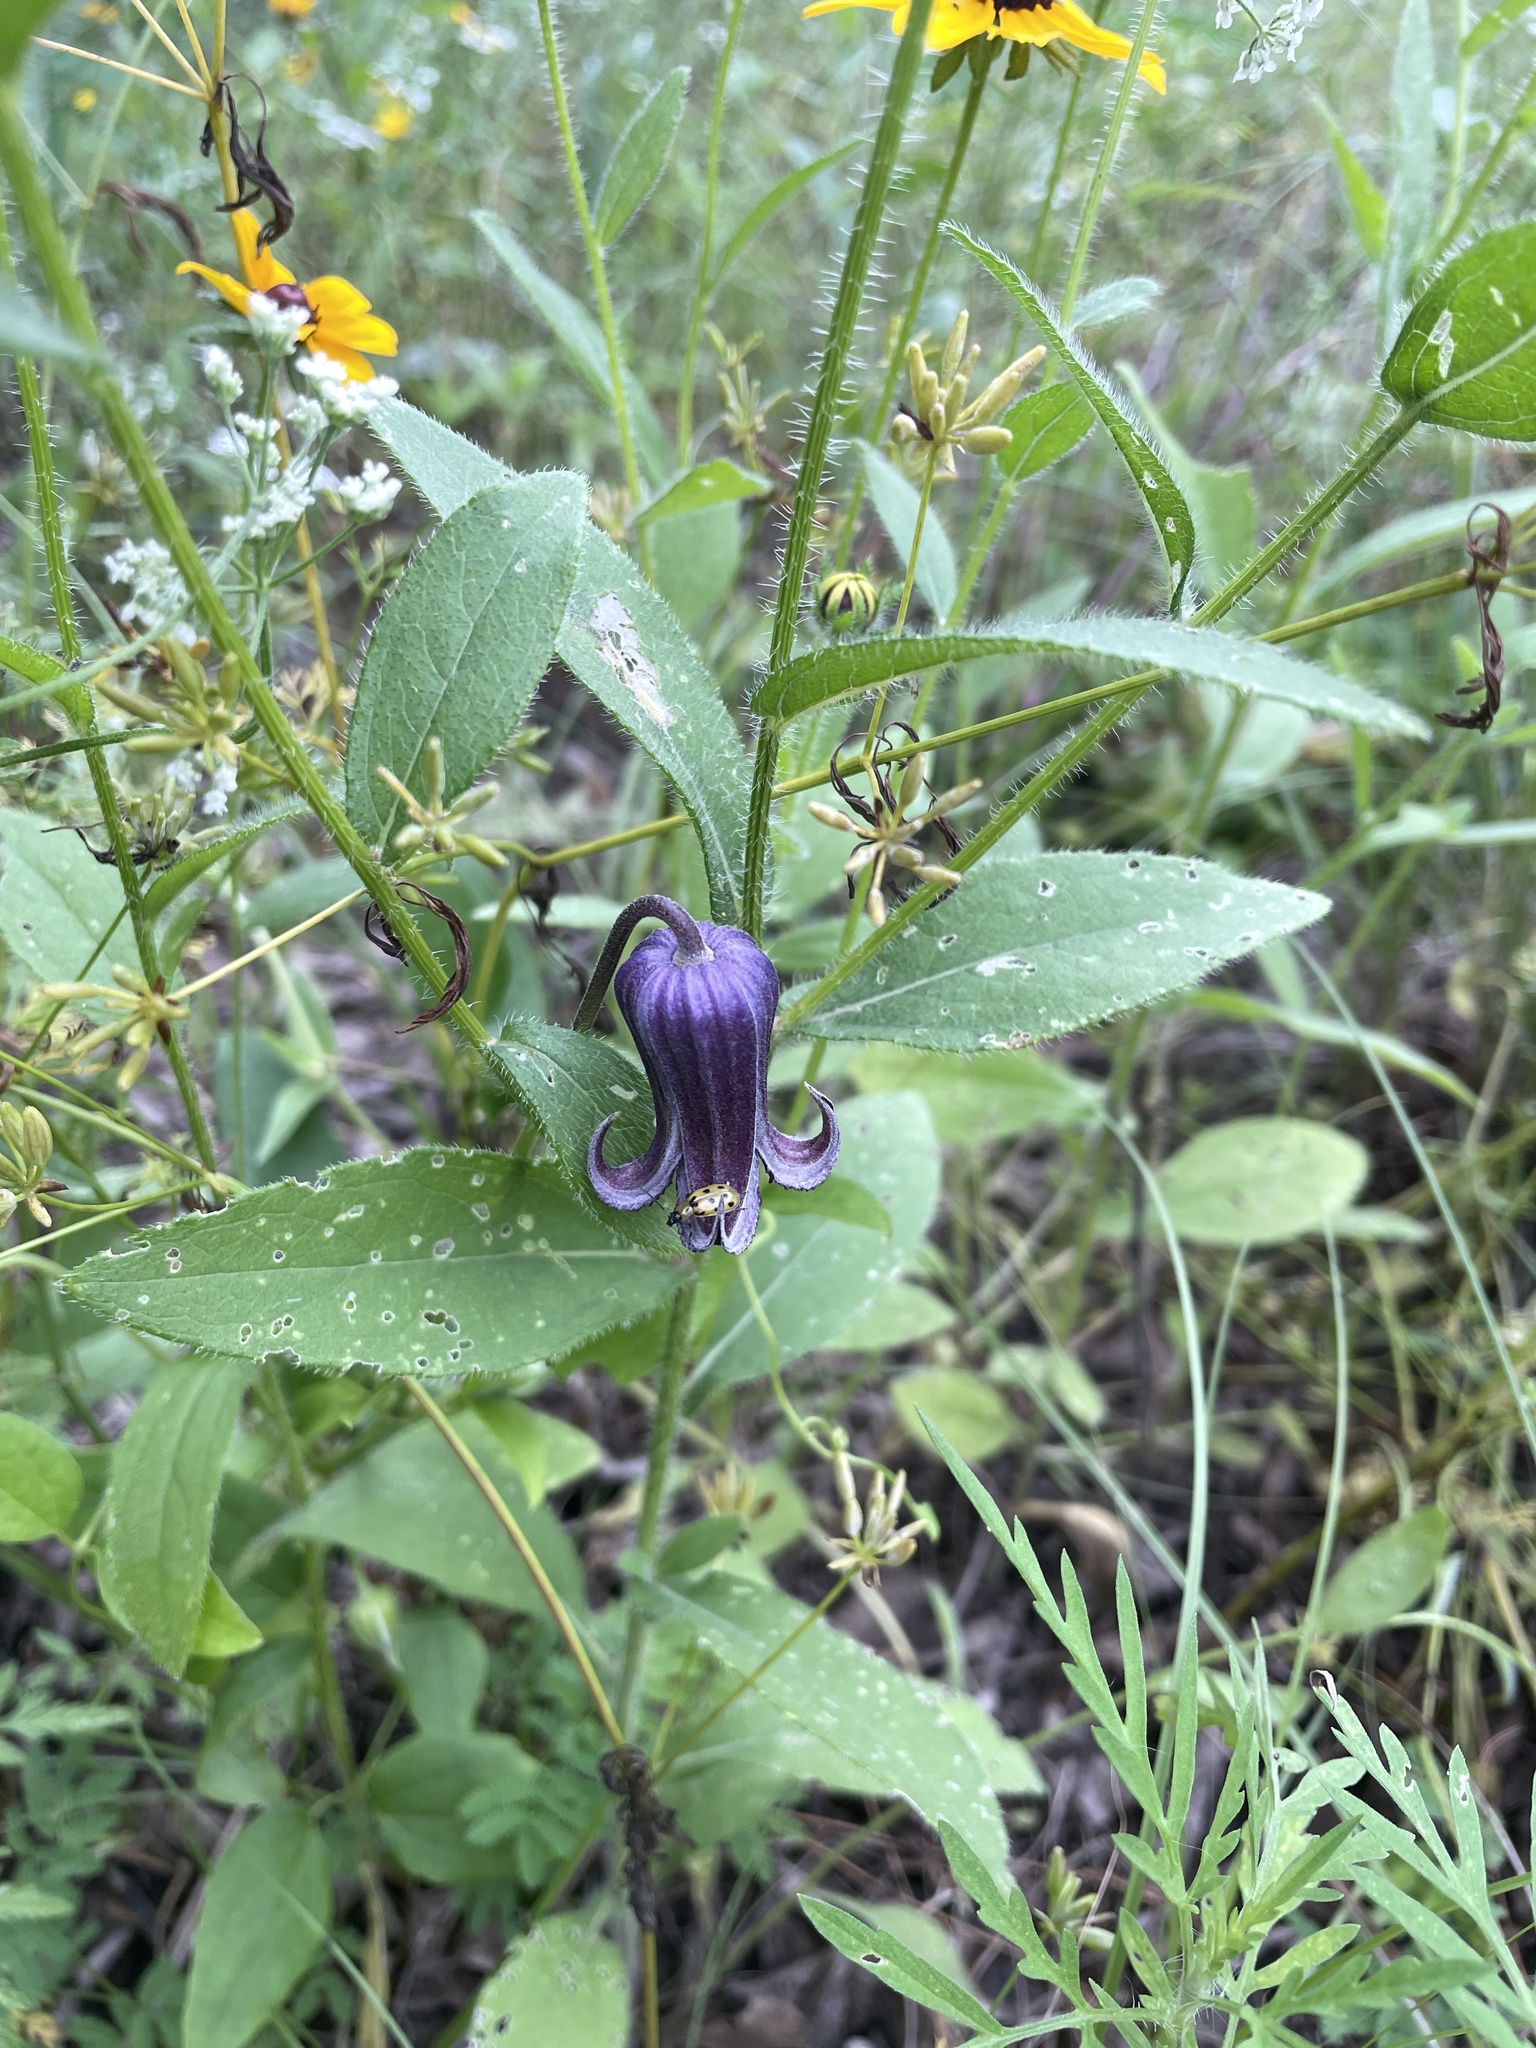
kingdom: Plantae
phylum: Tracheophyta
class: Magnoliopsida
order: Ranunculales
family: Ranunculaceae
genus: Clematis
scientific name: Clematis pitcheri
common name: Bellflower clematis
